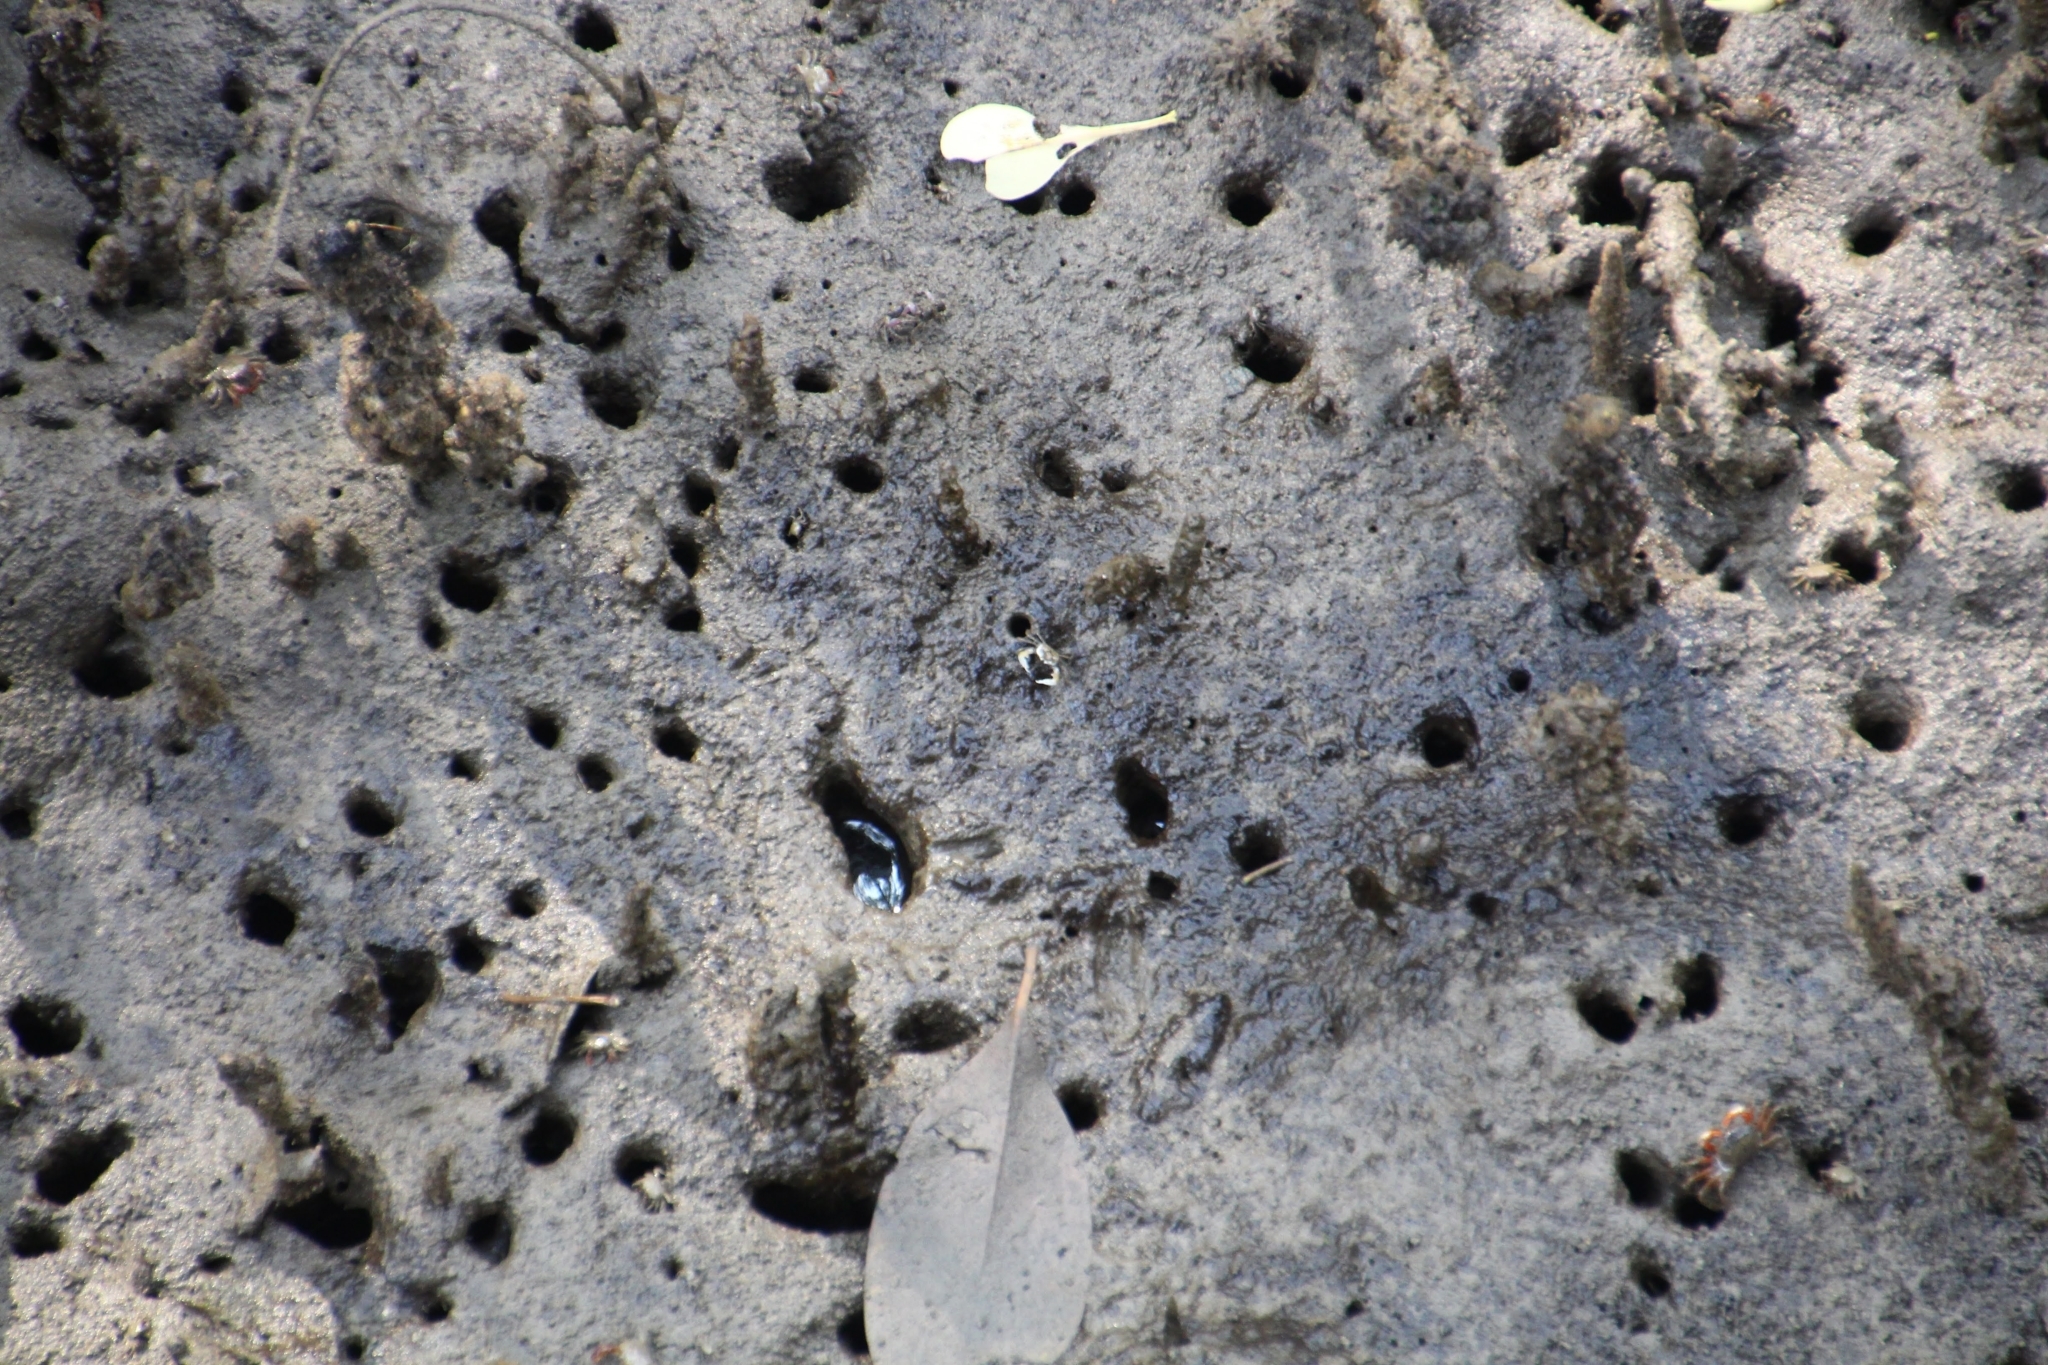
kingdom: Animalia
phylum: Arthropoda
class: Malacostraca
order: Decapoda
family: Dotillidae
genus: Dotilla
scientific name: Dotilla myctiroides
